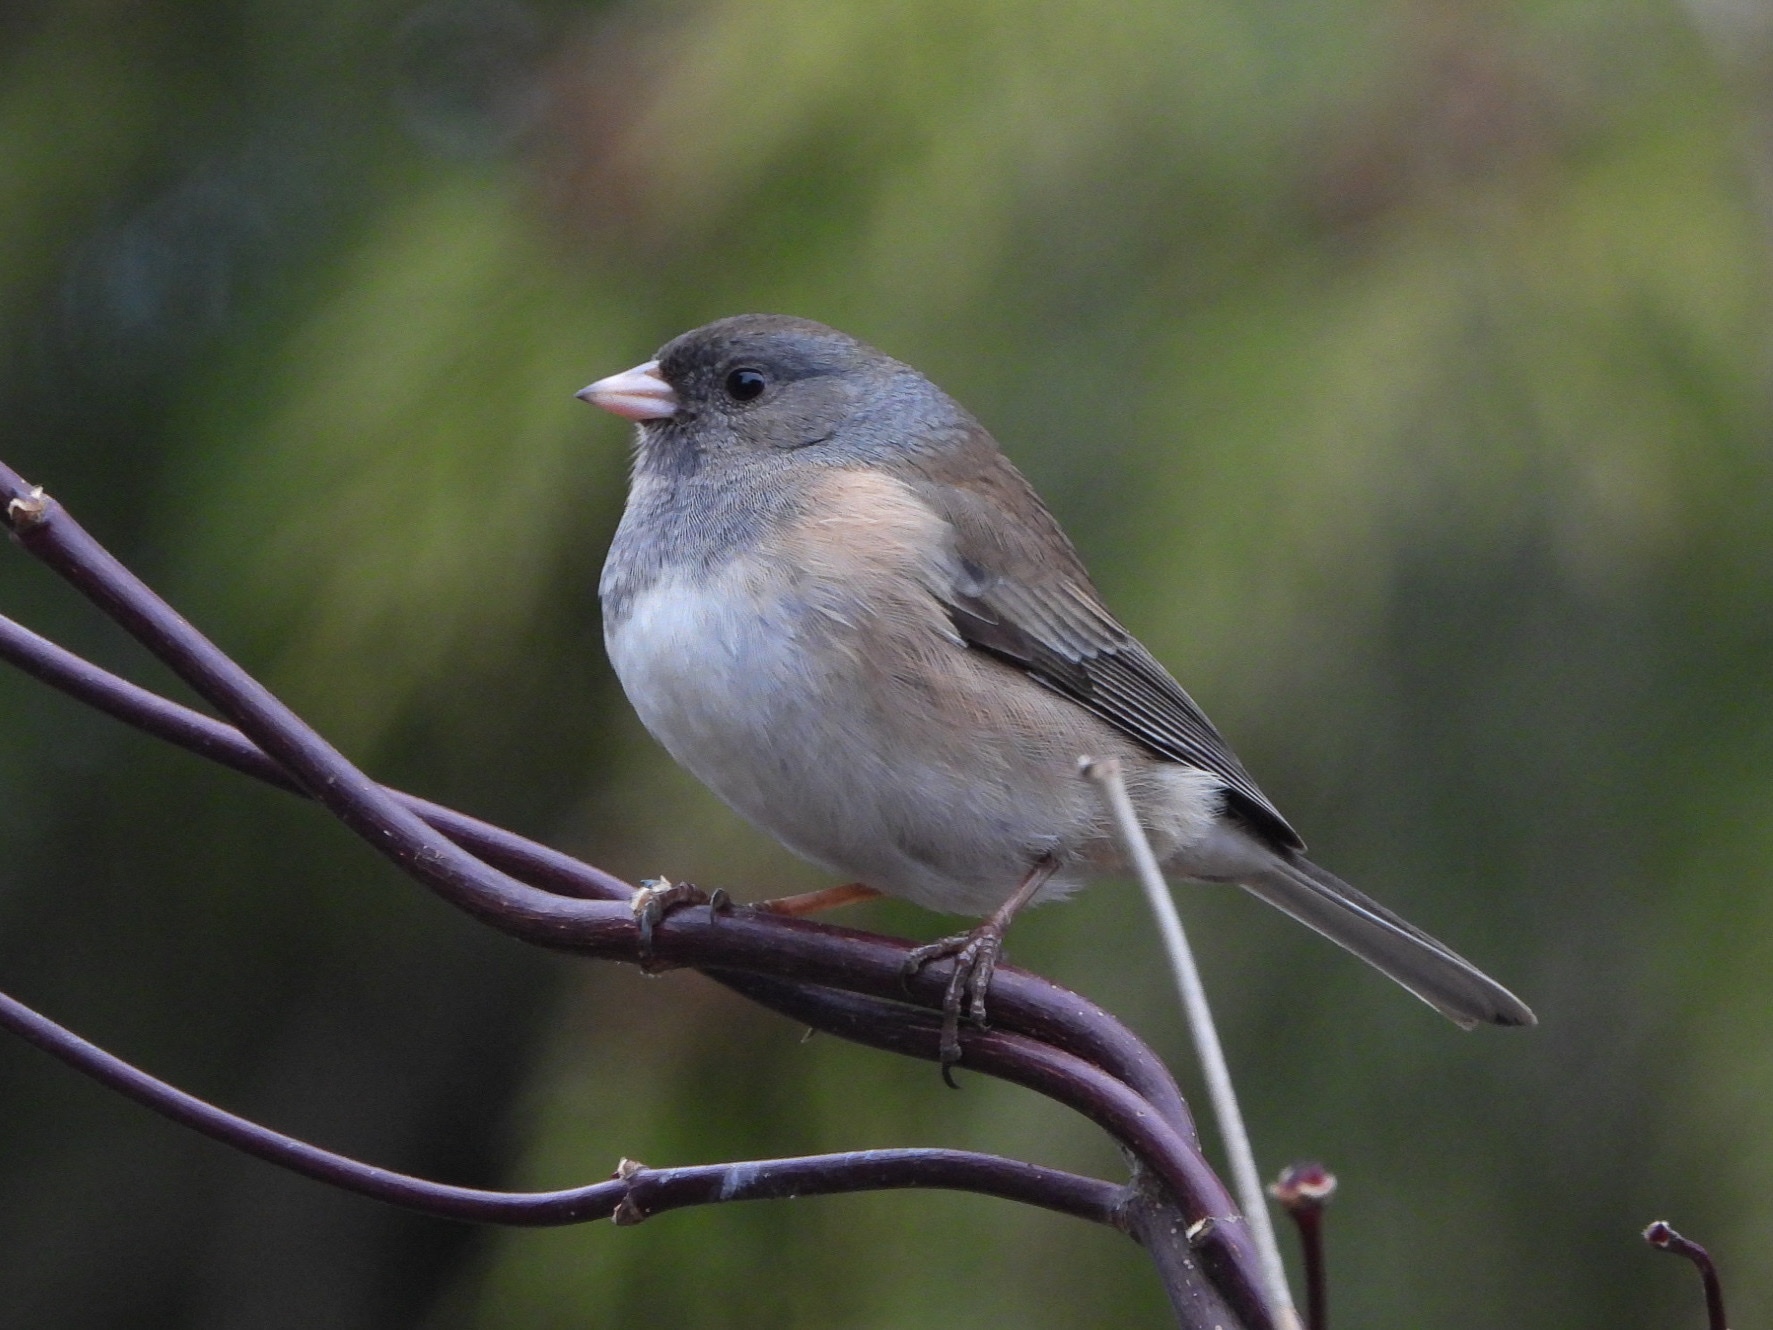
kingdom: Animalia
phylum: Chordata
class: Aves
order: Passeriformes
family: Passerellidae
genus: Junco
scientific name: Junco hyemalis
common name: Dark-eyed junco
